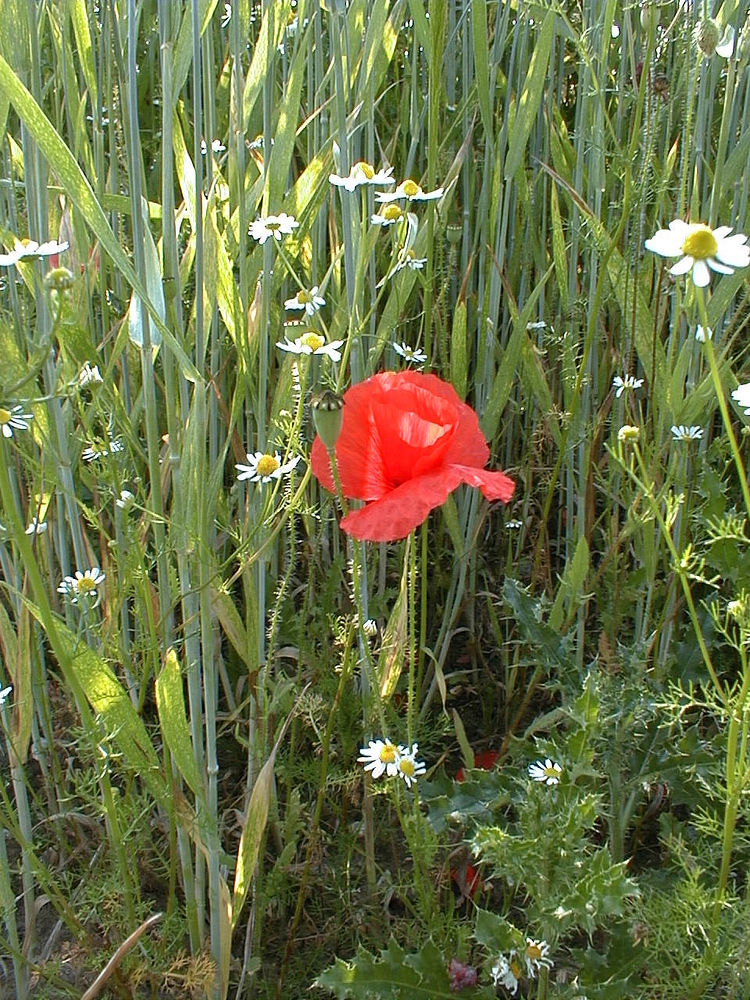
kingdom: Plantae
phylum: Tracheophyta
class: Magnoliopsida
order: Ranunculales
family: Papaveraceae
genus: Papaver
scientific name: Papaver rhoeas
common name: Corn poppy
